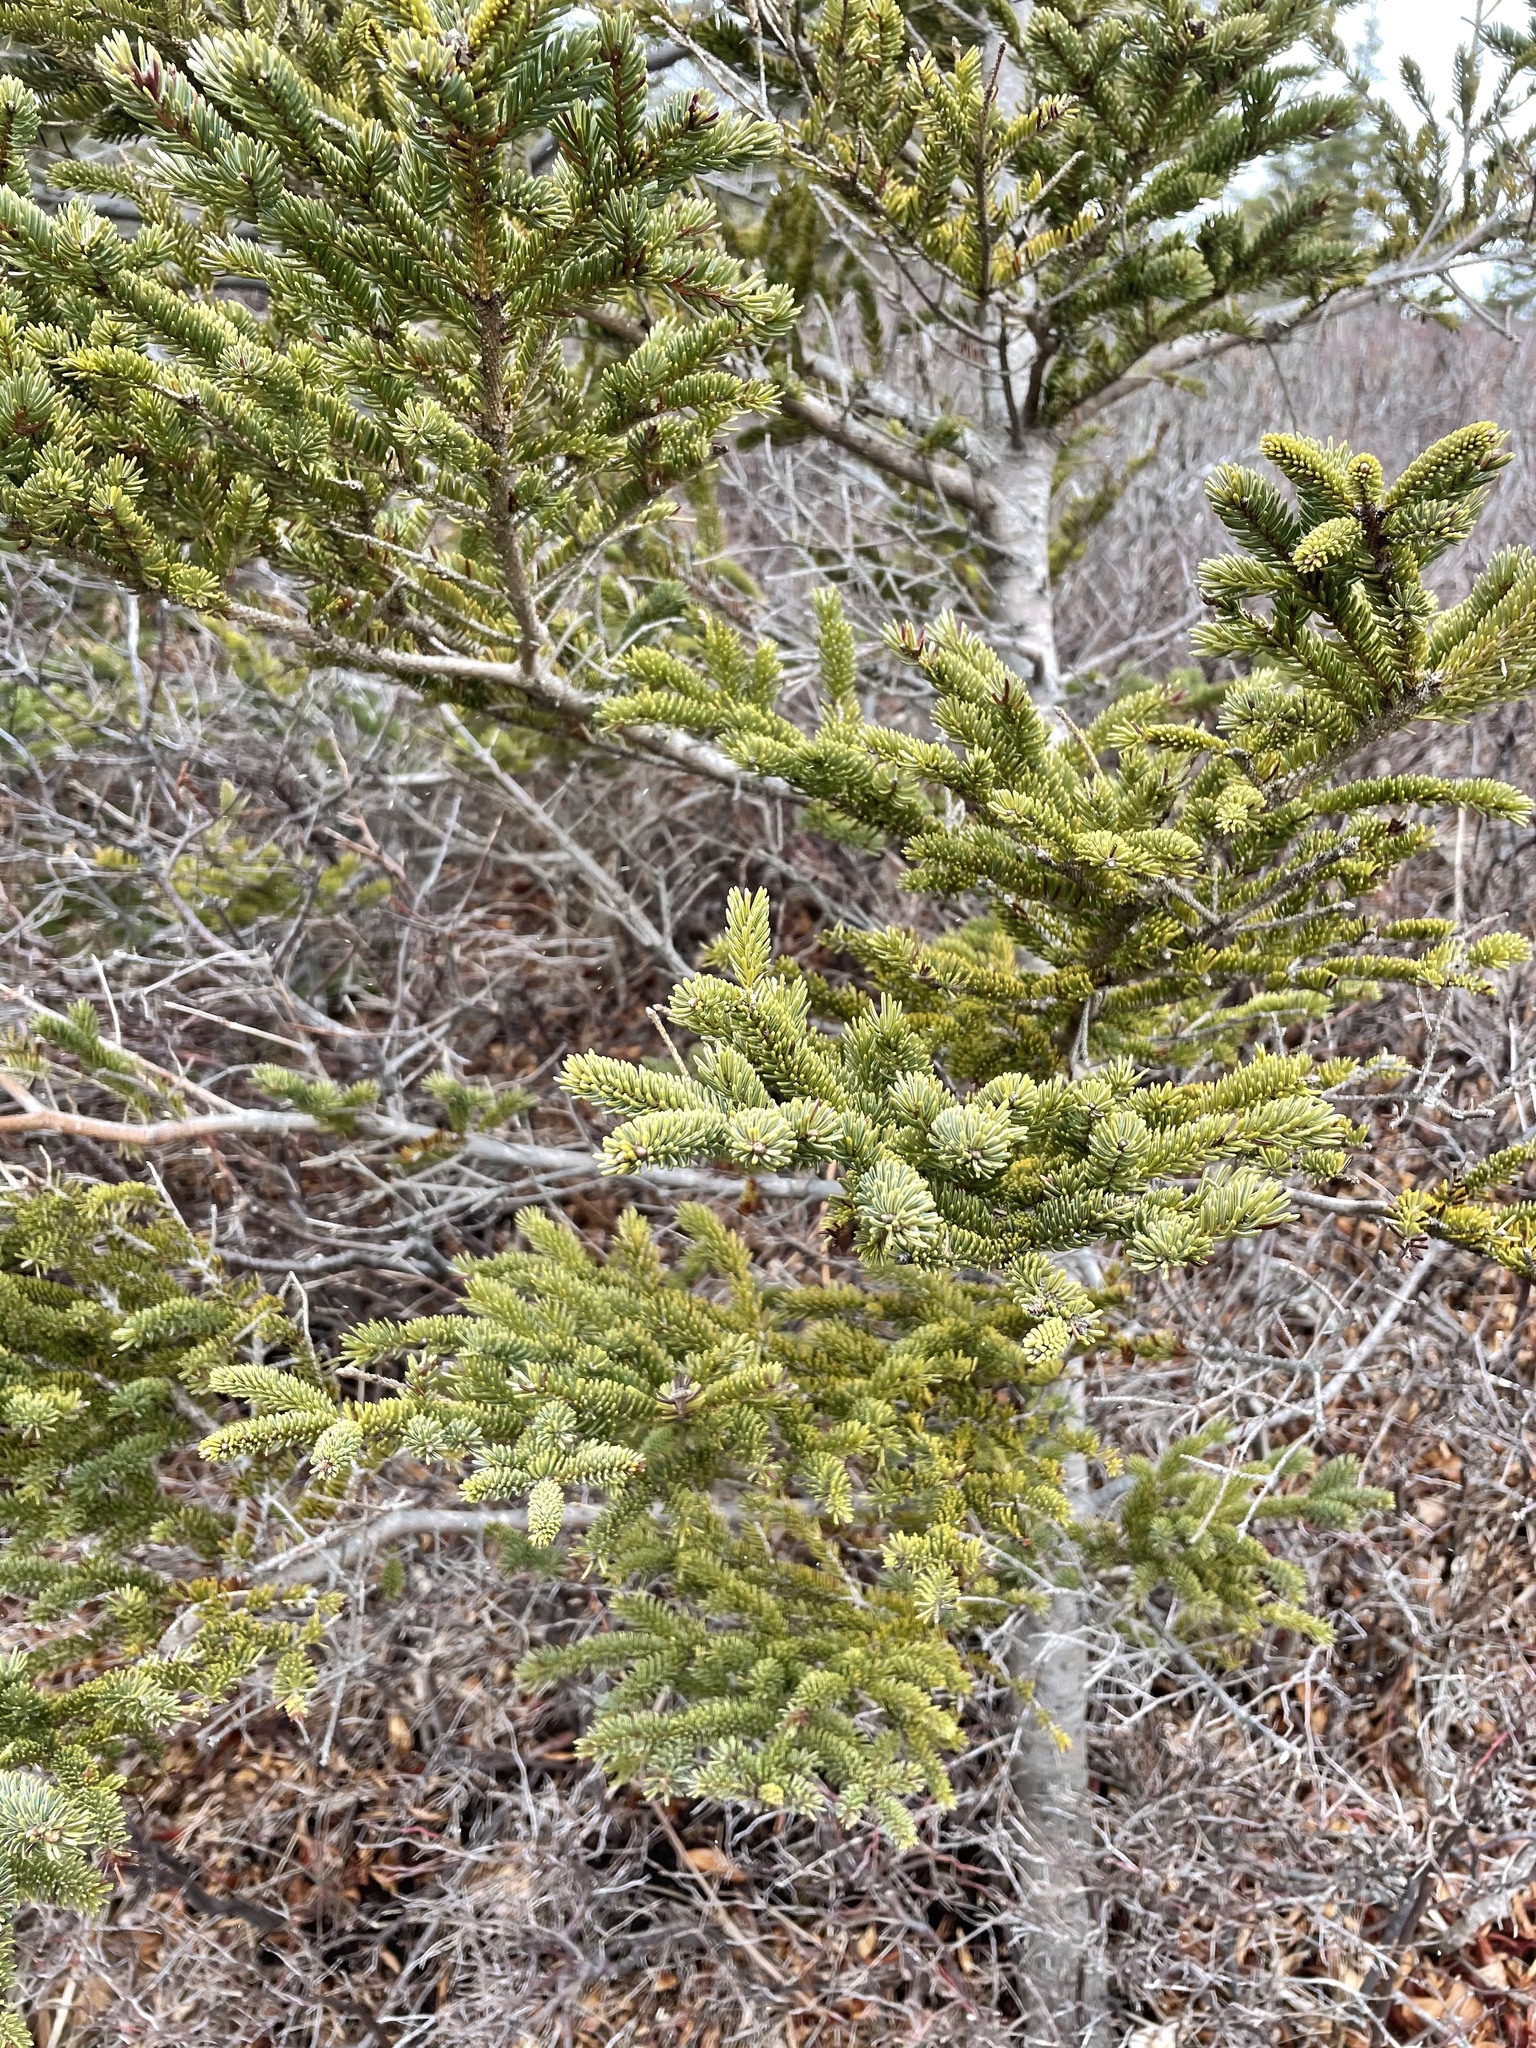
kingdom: Plantae
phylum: Tracheophyta
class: Pinopsida
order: Pinales
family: Pinaceae
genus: Picea
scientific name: Picea glauca
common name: White spruce
